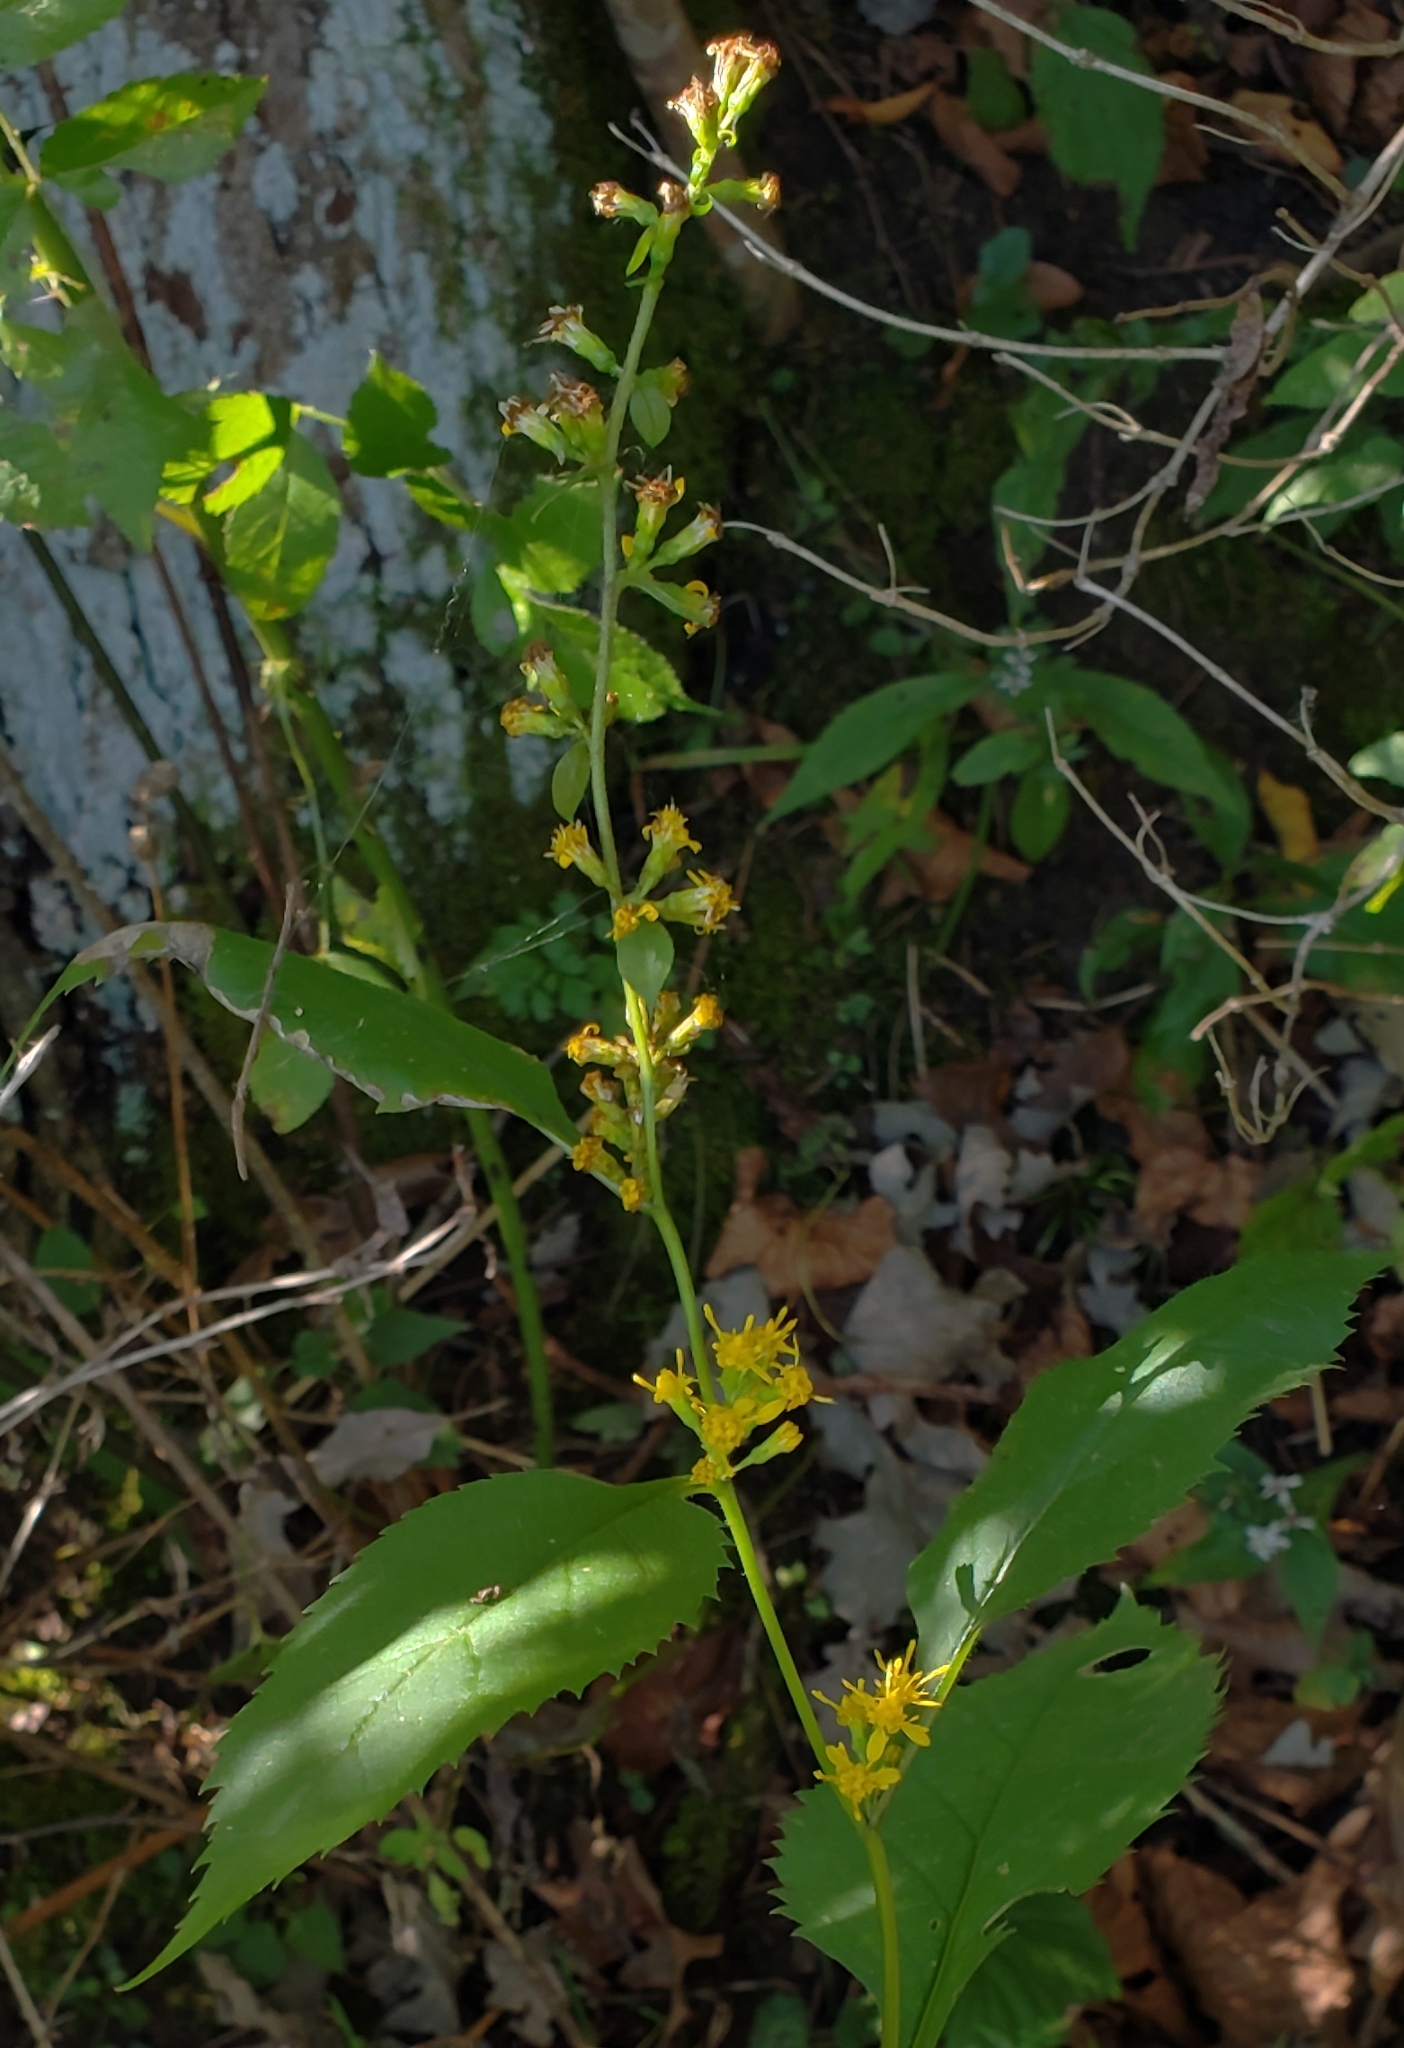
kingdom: Plantae
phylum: Tracheophyta
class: Magnoliopsida
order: Asterales
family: Asteraceae
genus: Solidago
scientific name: Solidago flexicaulis
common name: Zig-zag goldenrod
